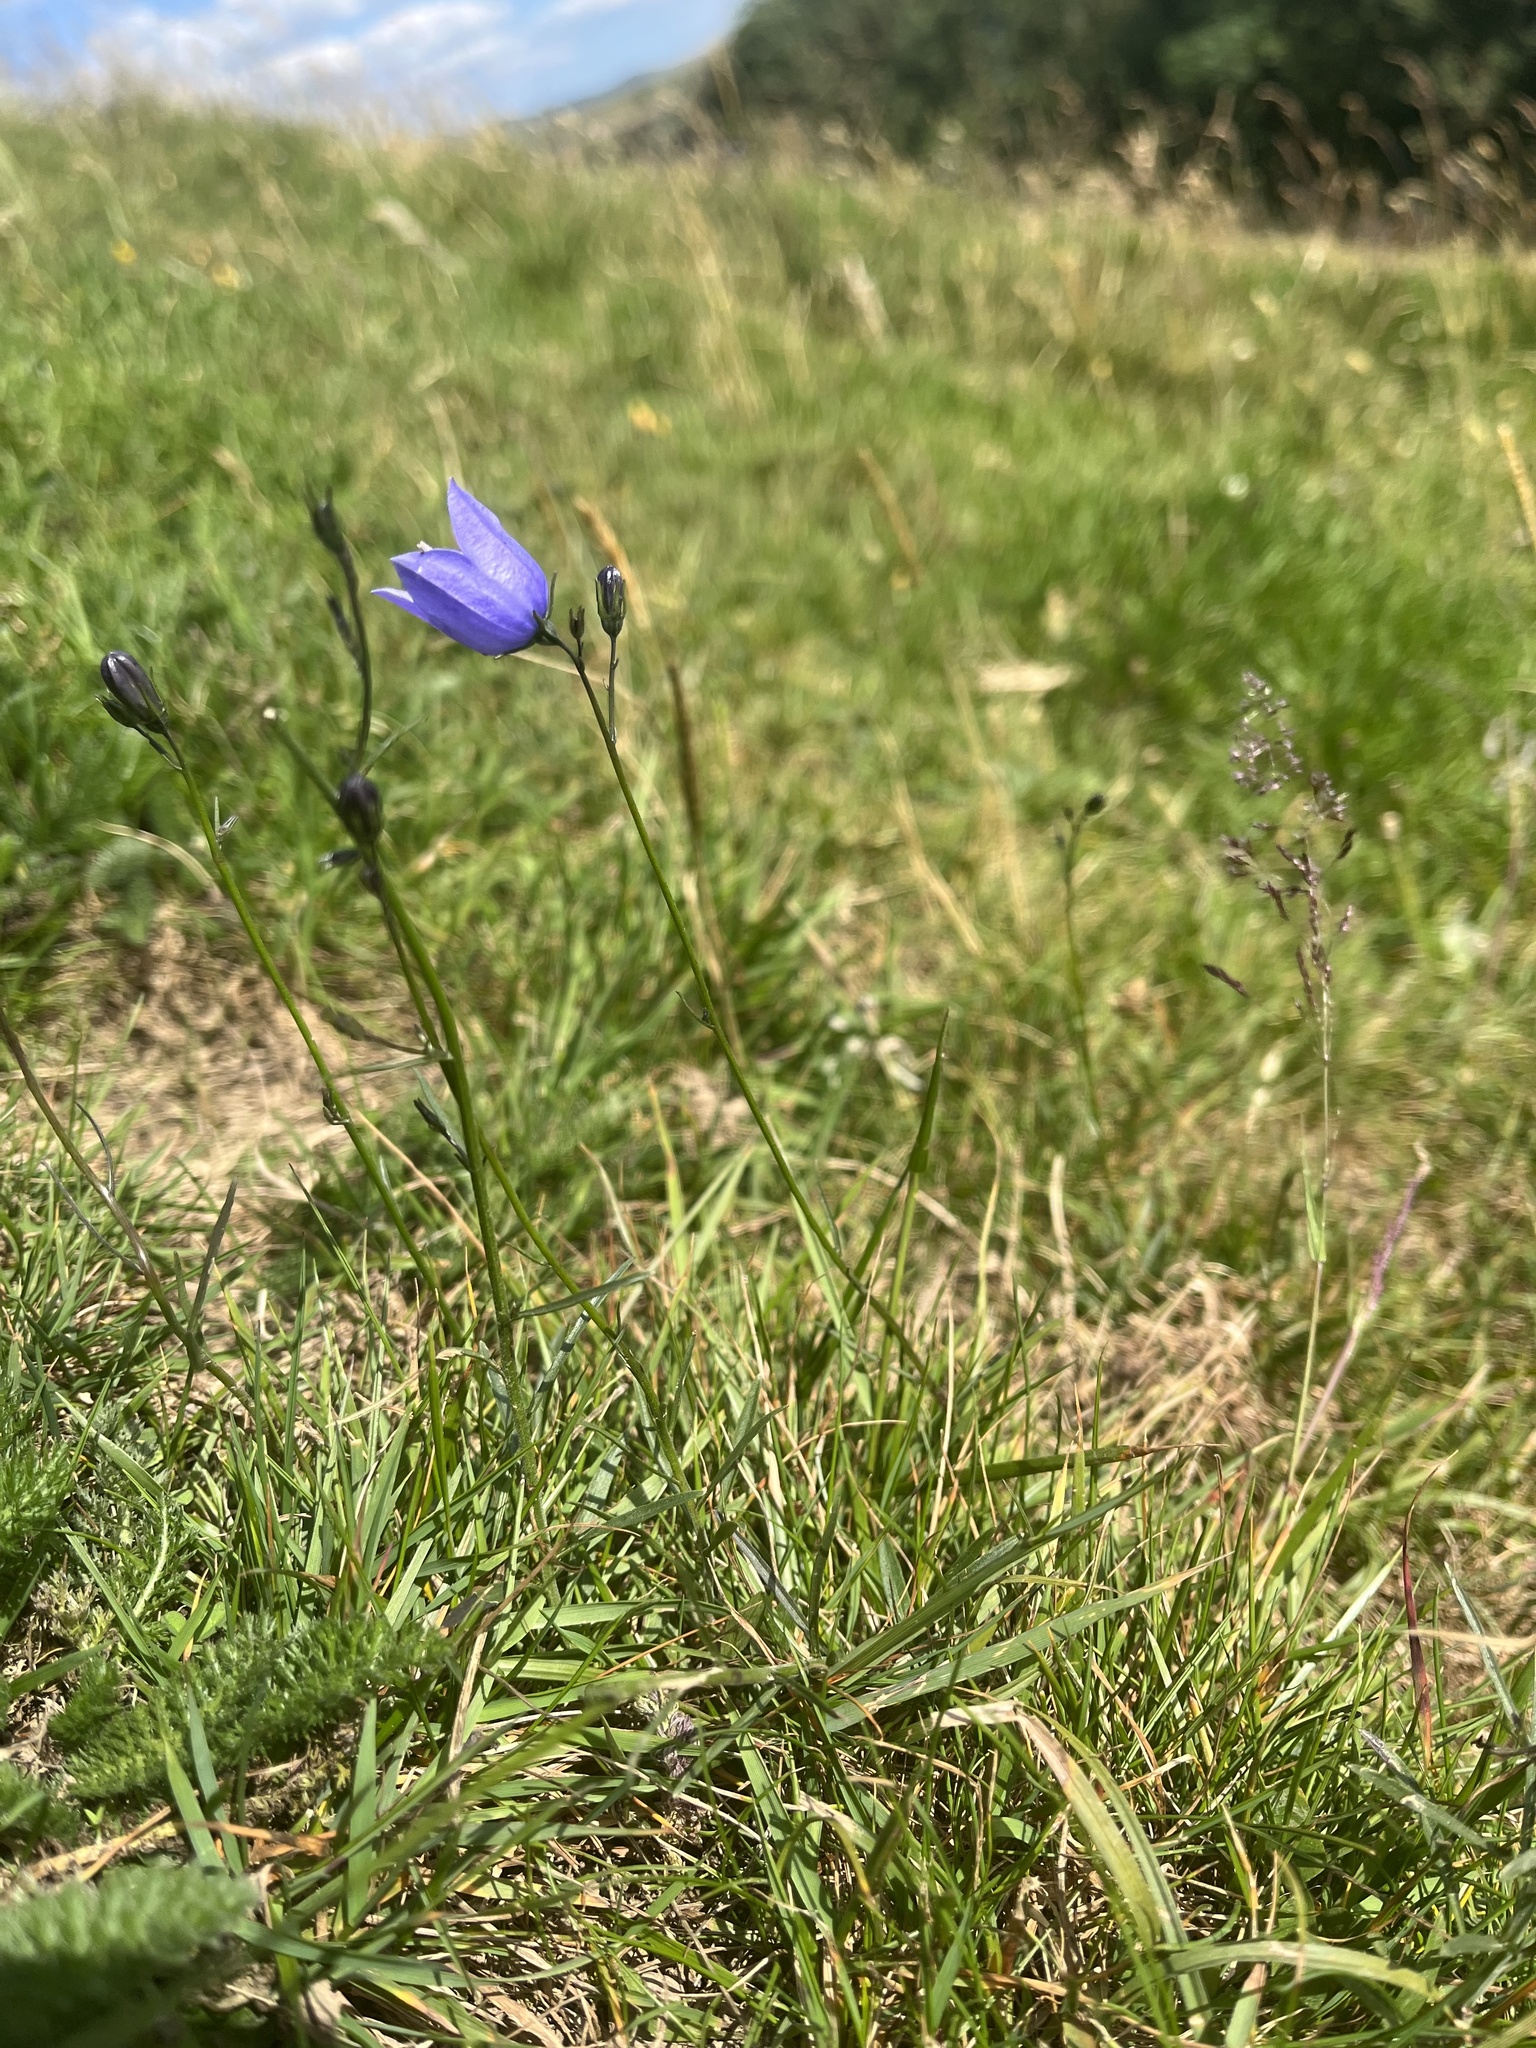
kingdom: Plantae
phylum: Tracheophyta
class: Magnoliopsida
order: Asterales
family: Campanulaceae
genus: Campanula
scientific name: Campanula rotundifolia
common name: Harebell
